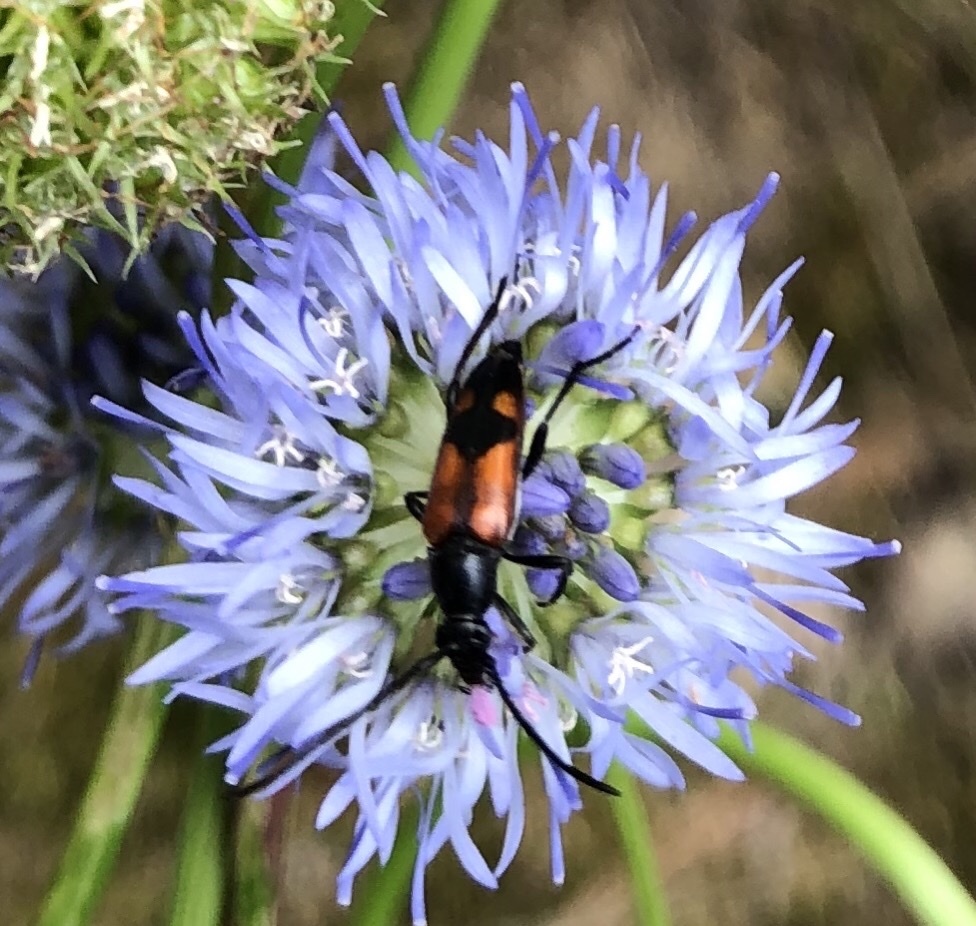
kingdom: Animalia
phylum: Arthropoda
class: Insecta
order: Coleoptera
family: Cerambycidae
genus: Stenurella
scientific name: Stenurella bifasciata
